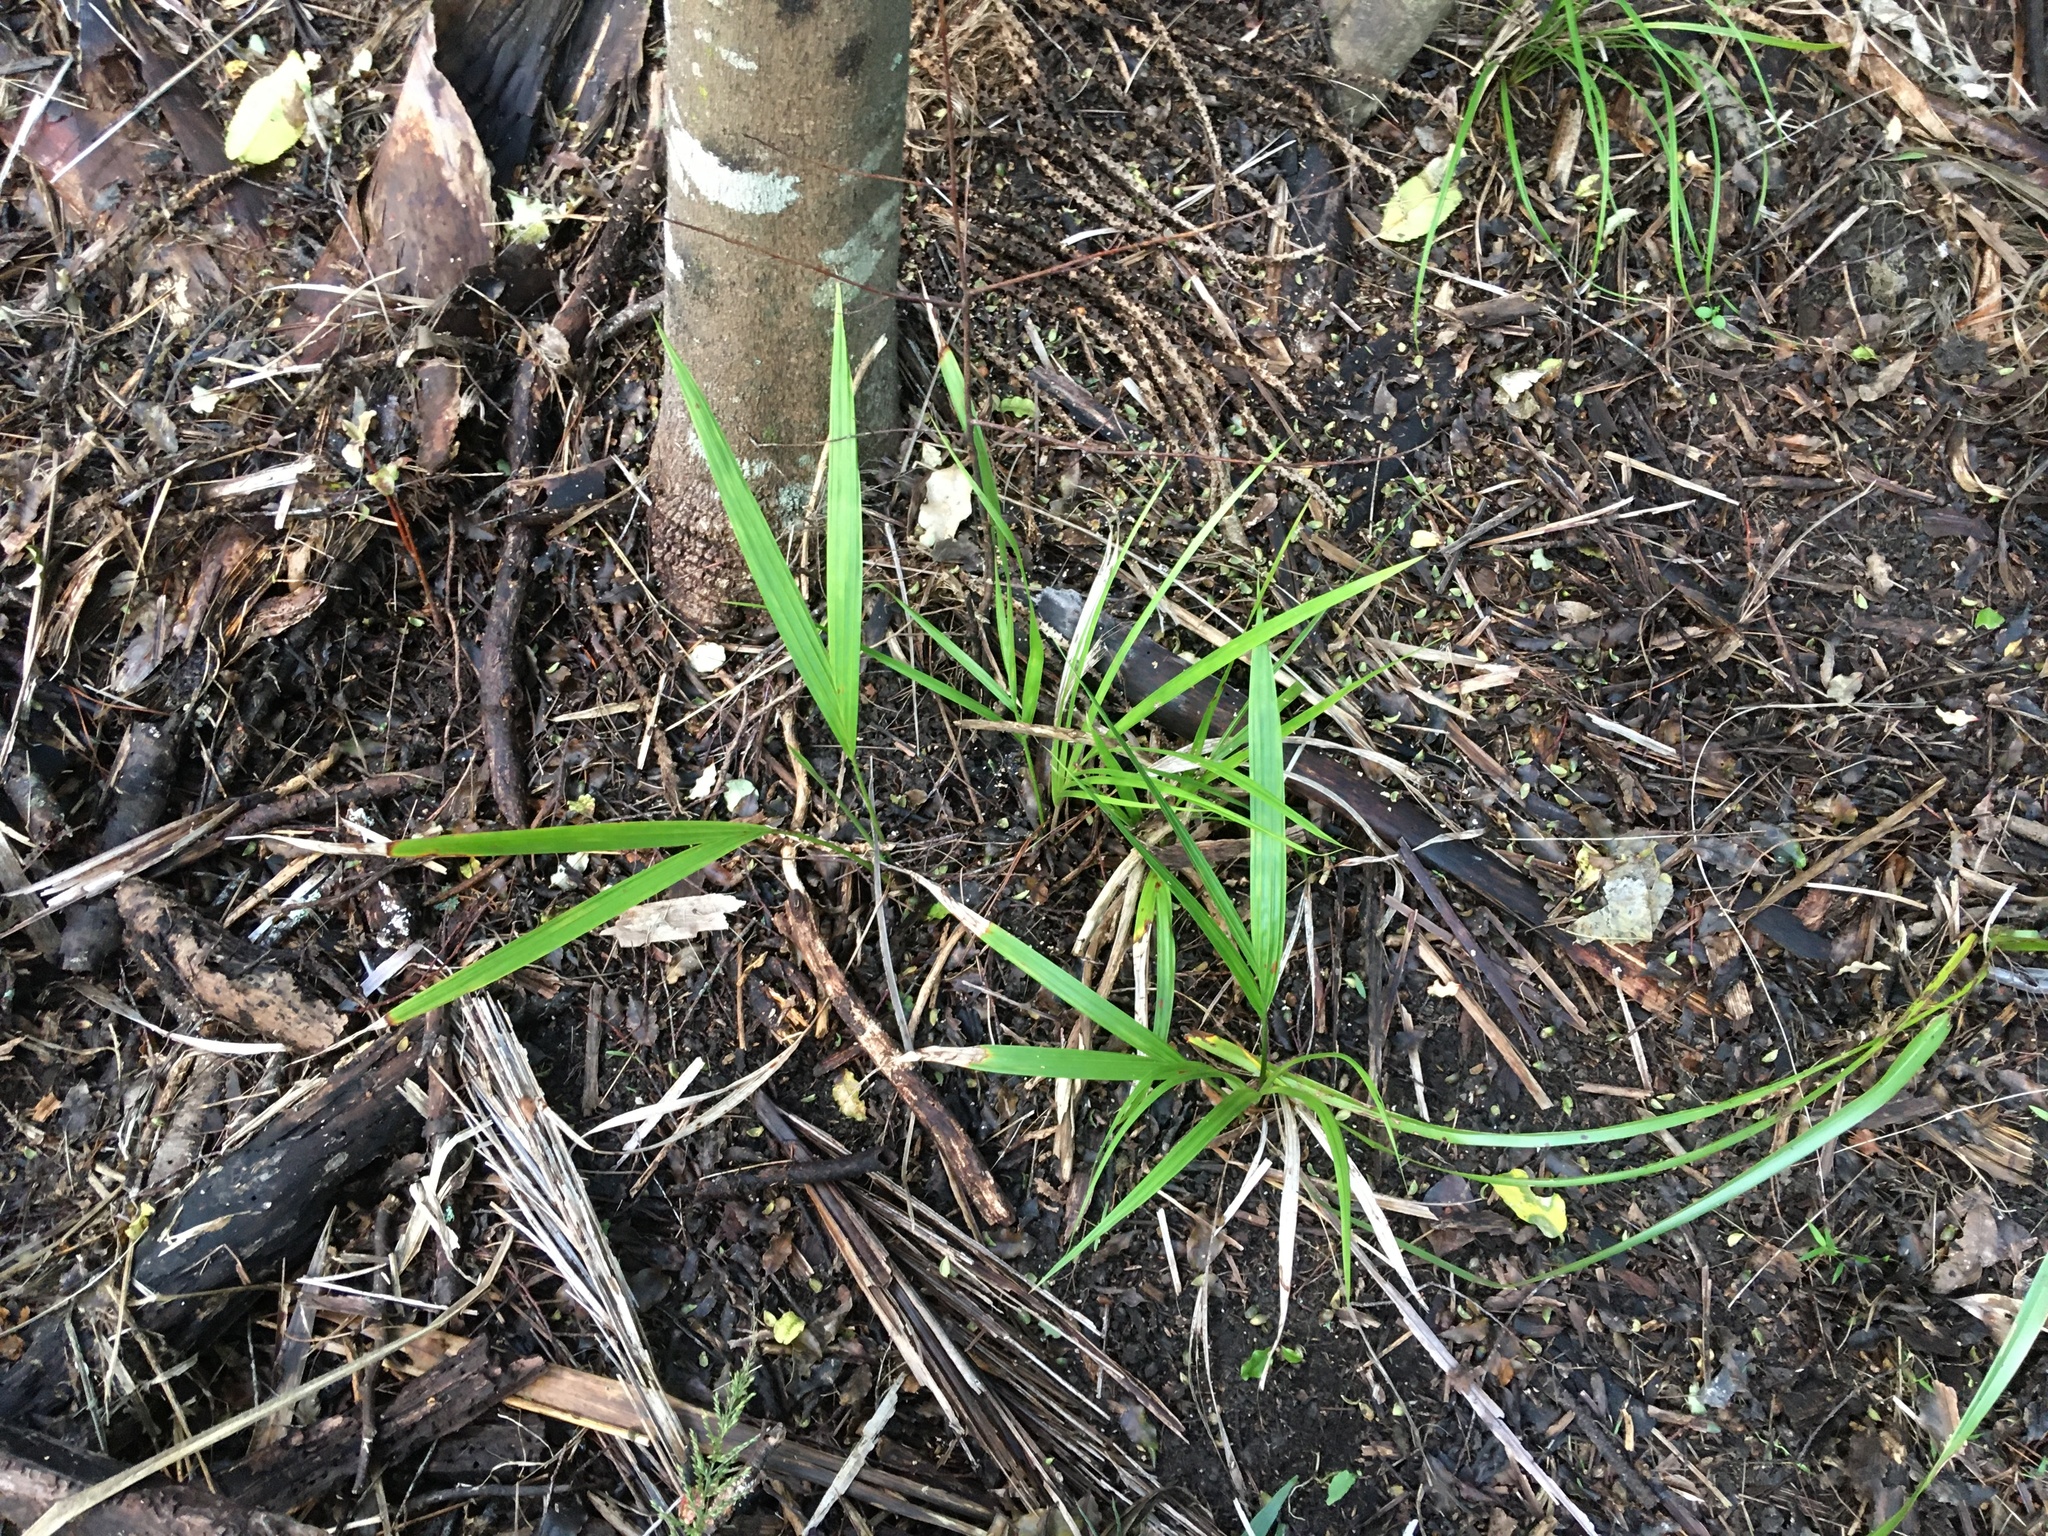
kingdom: Plantae
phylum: Tracheophyta
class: Liliopsida
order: Arecales
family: Arecaceae
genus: Rhopalostylis
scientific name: Rhopalostylis sapida
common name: Feather-duster palm
